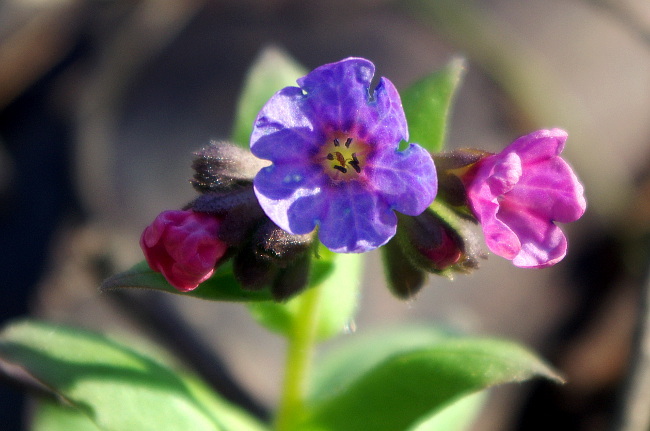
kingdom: Plantae
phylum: Tracheophyta
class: Magnoliopsida
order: Boraginales
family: Boraginaceae
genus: Pulmonaria
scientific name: Pulmonaria obscura
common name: Suffolk lungwort
